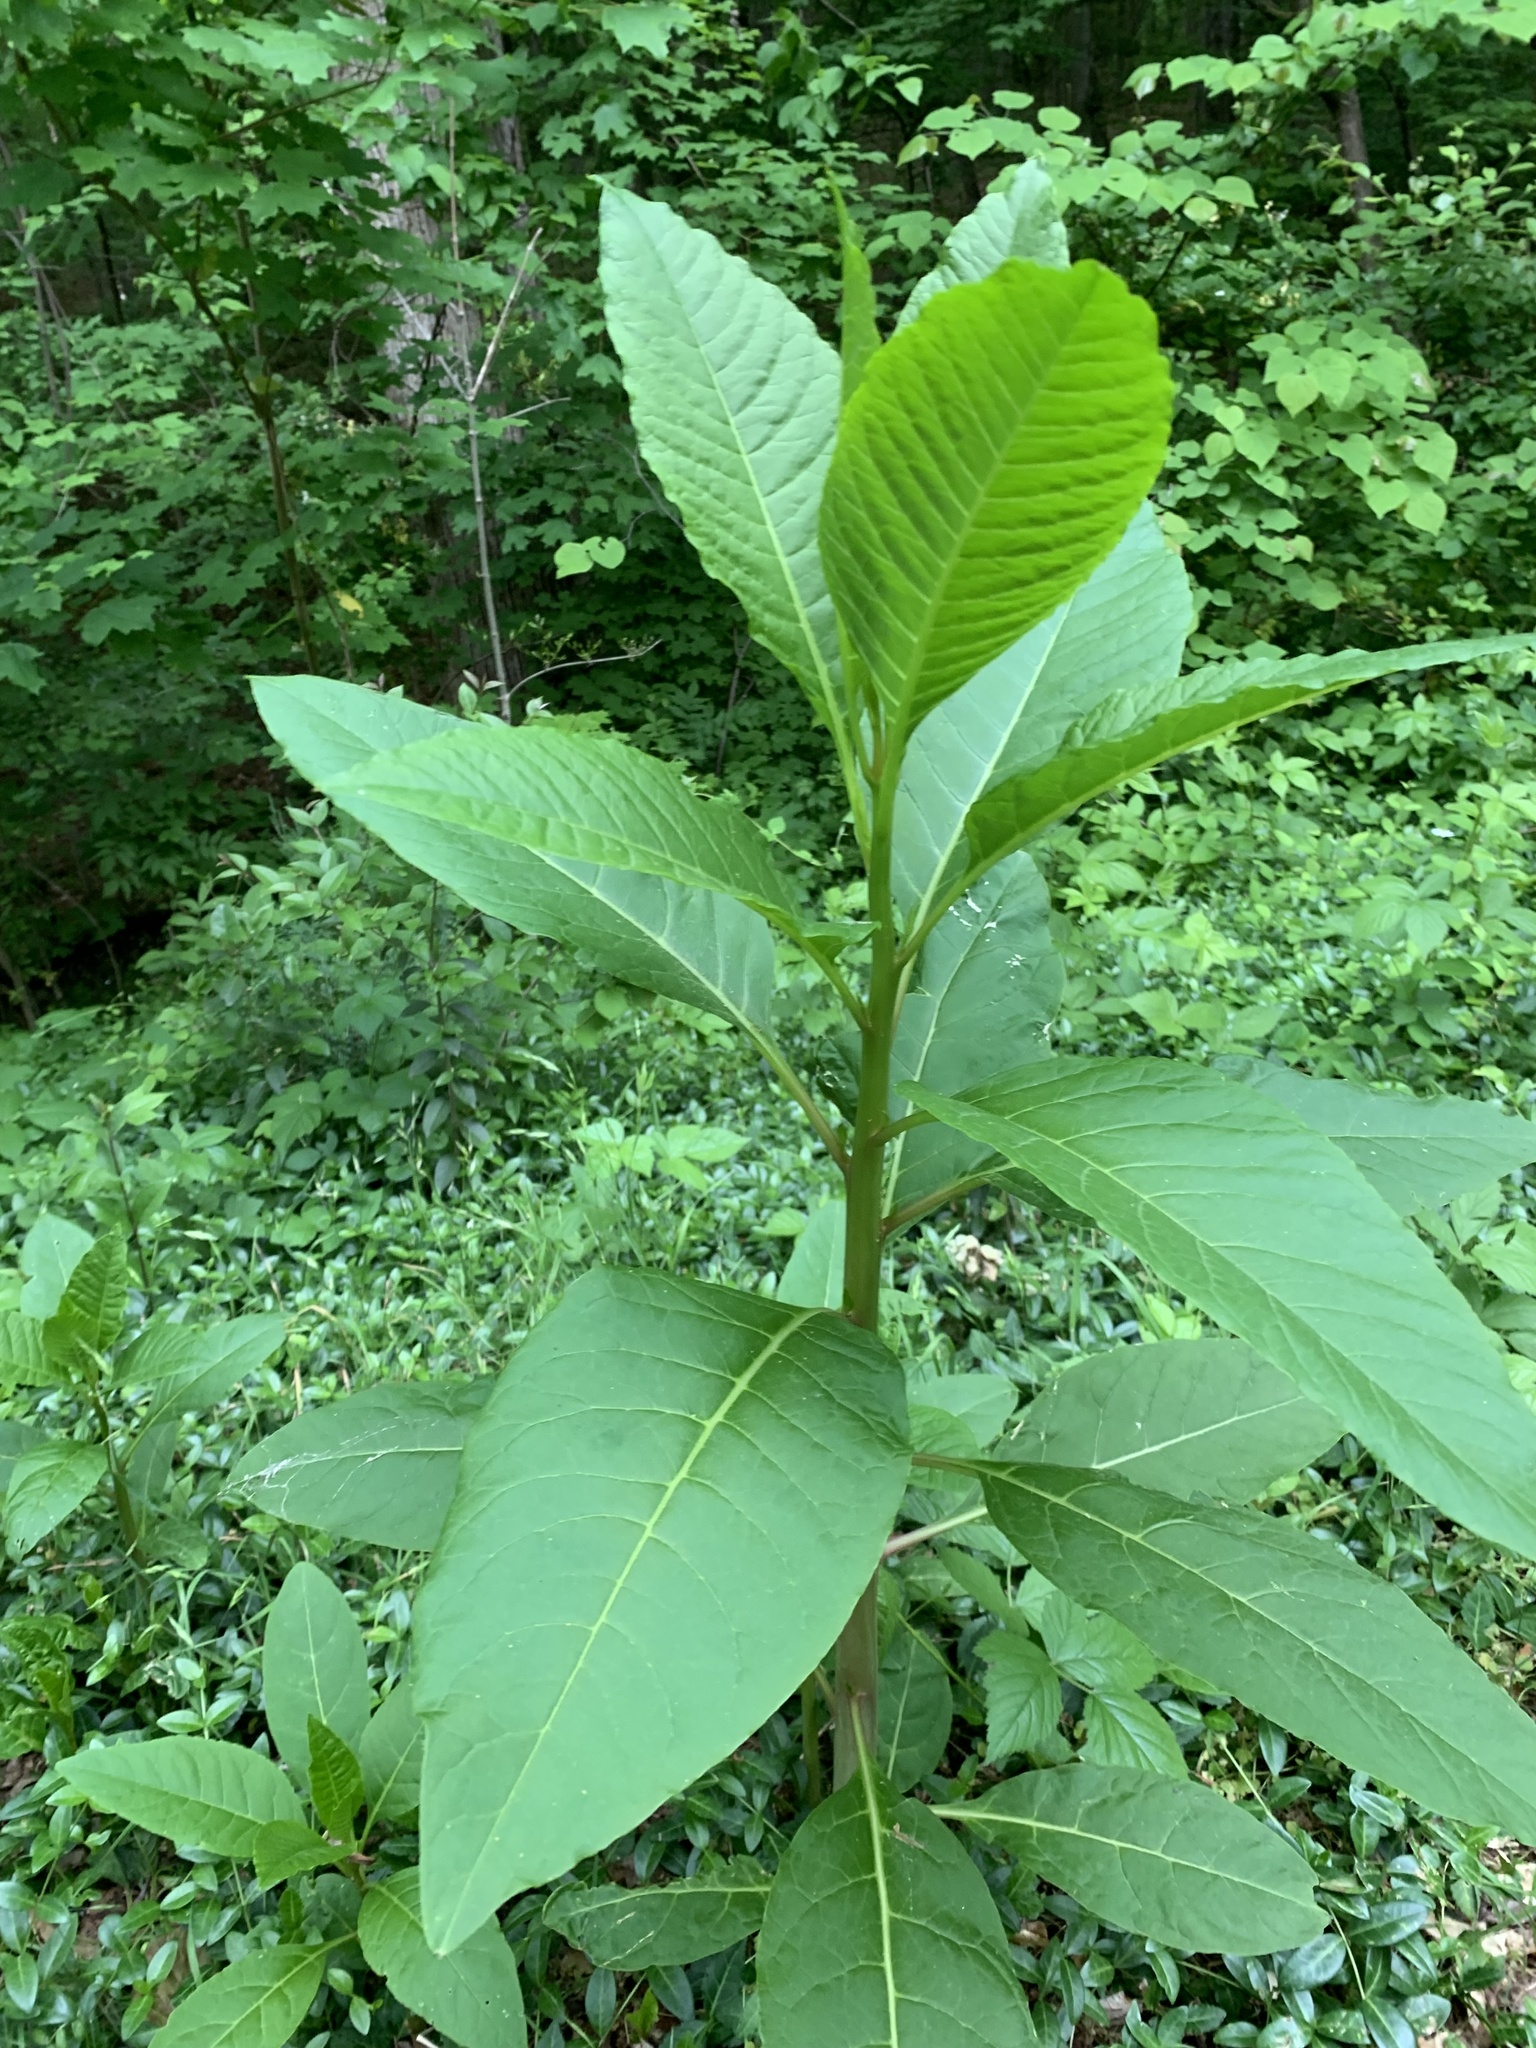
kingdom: Plantae
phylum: Tracheophyta
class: Magnoliopsida
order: Caryophyllales
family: Phytolaccaceae
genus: Phytolacca
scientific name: Phytolacca americana
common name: American pokeweed
